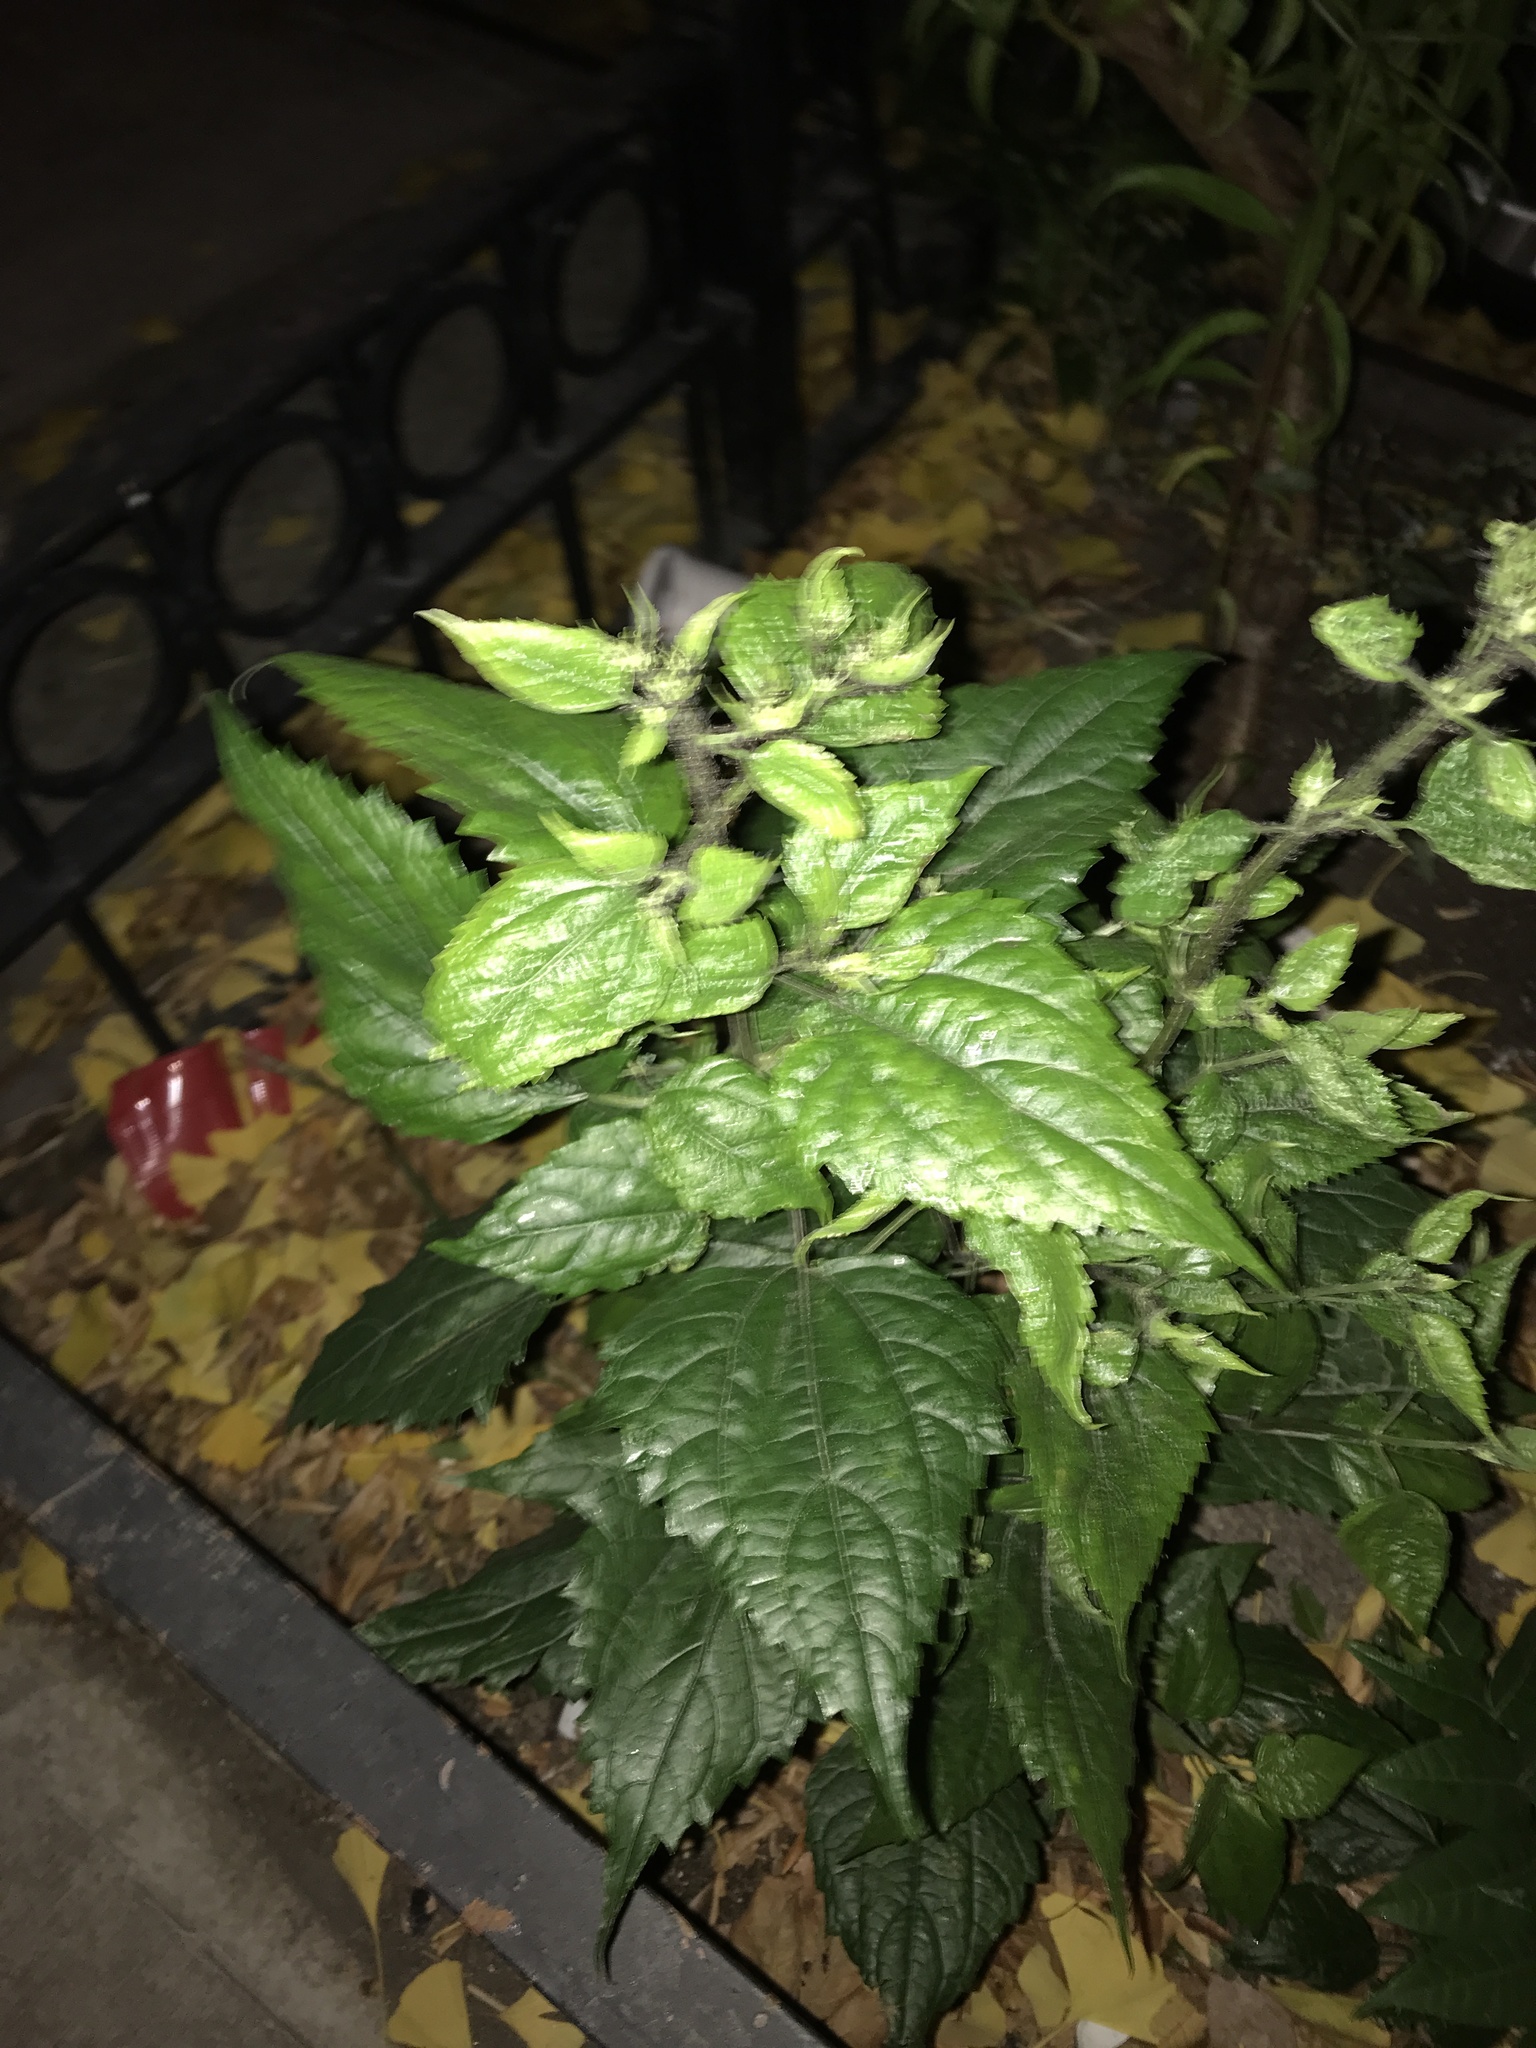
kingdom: Plantae
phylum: Tracheophyta
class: Magnoliopsida
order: Asterales
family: Asteraceae
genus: Ageratina
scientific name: Ageratina altissima
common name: White snakeroot
